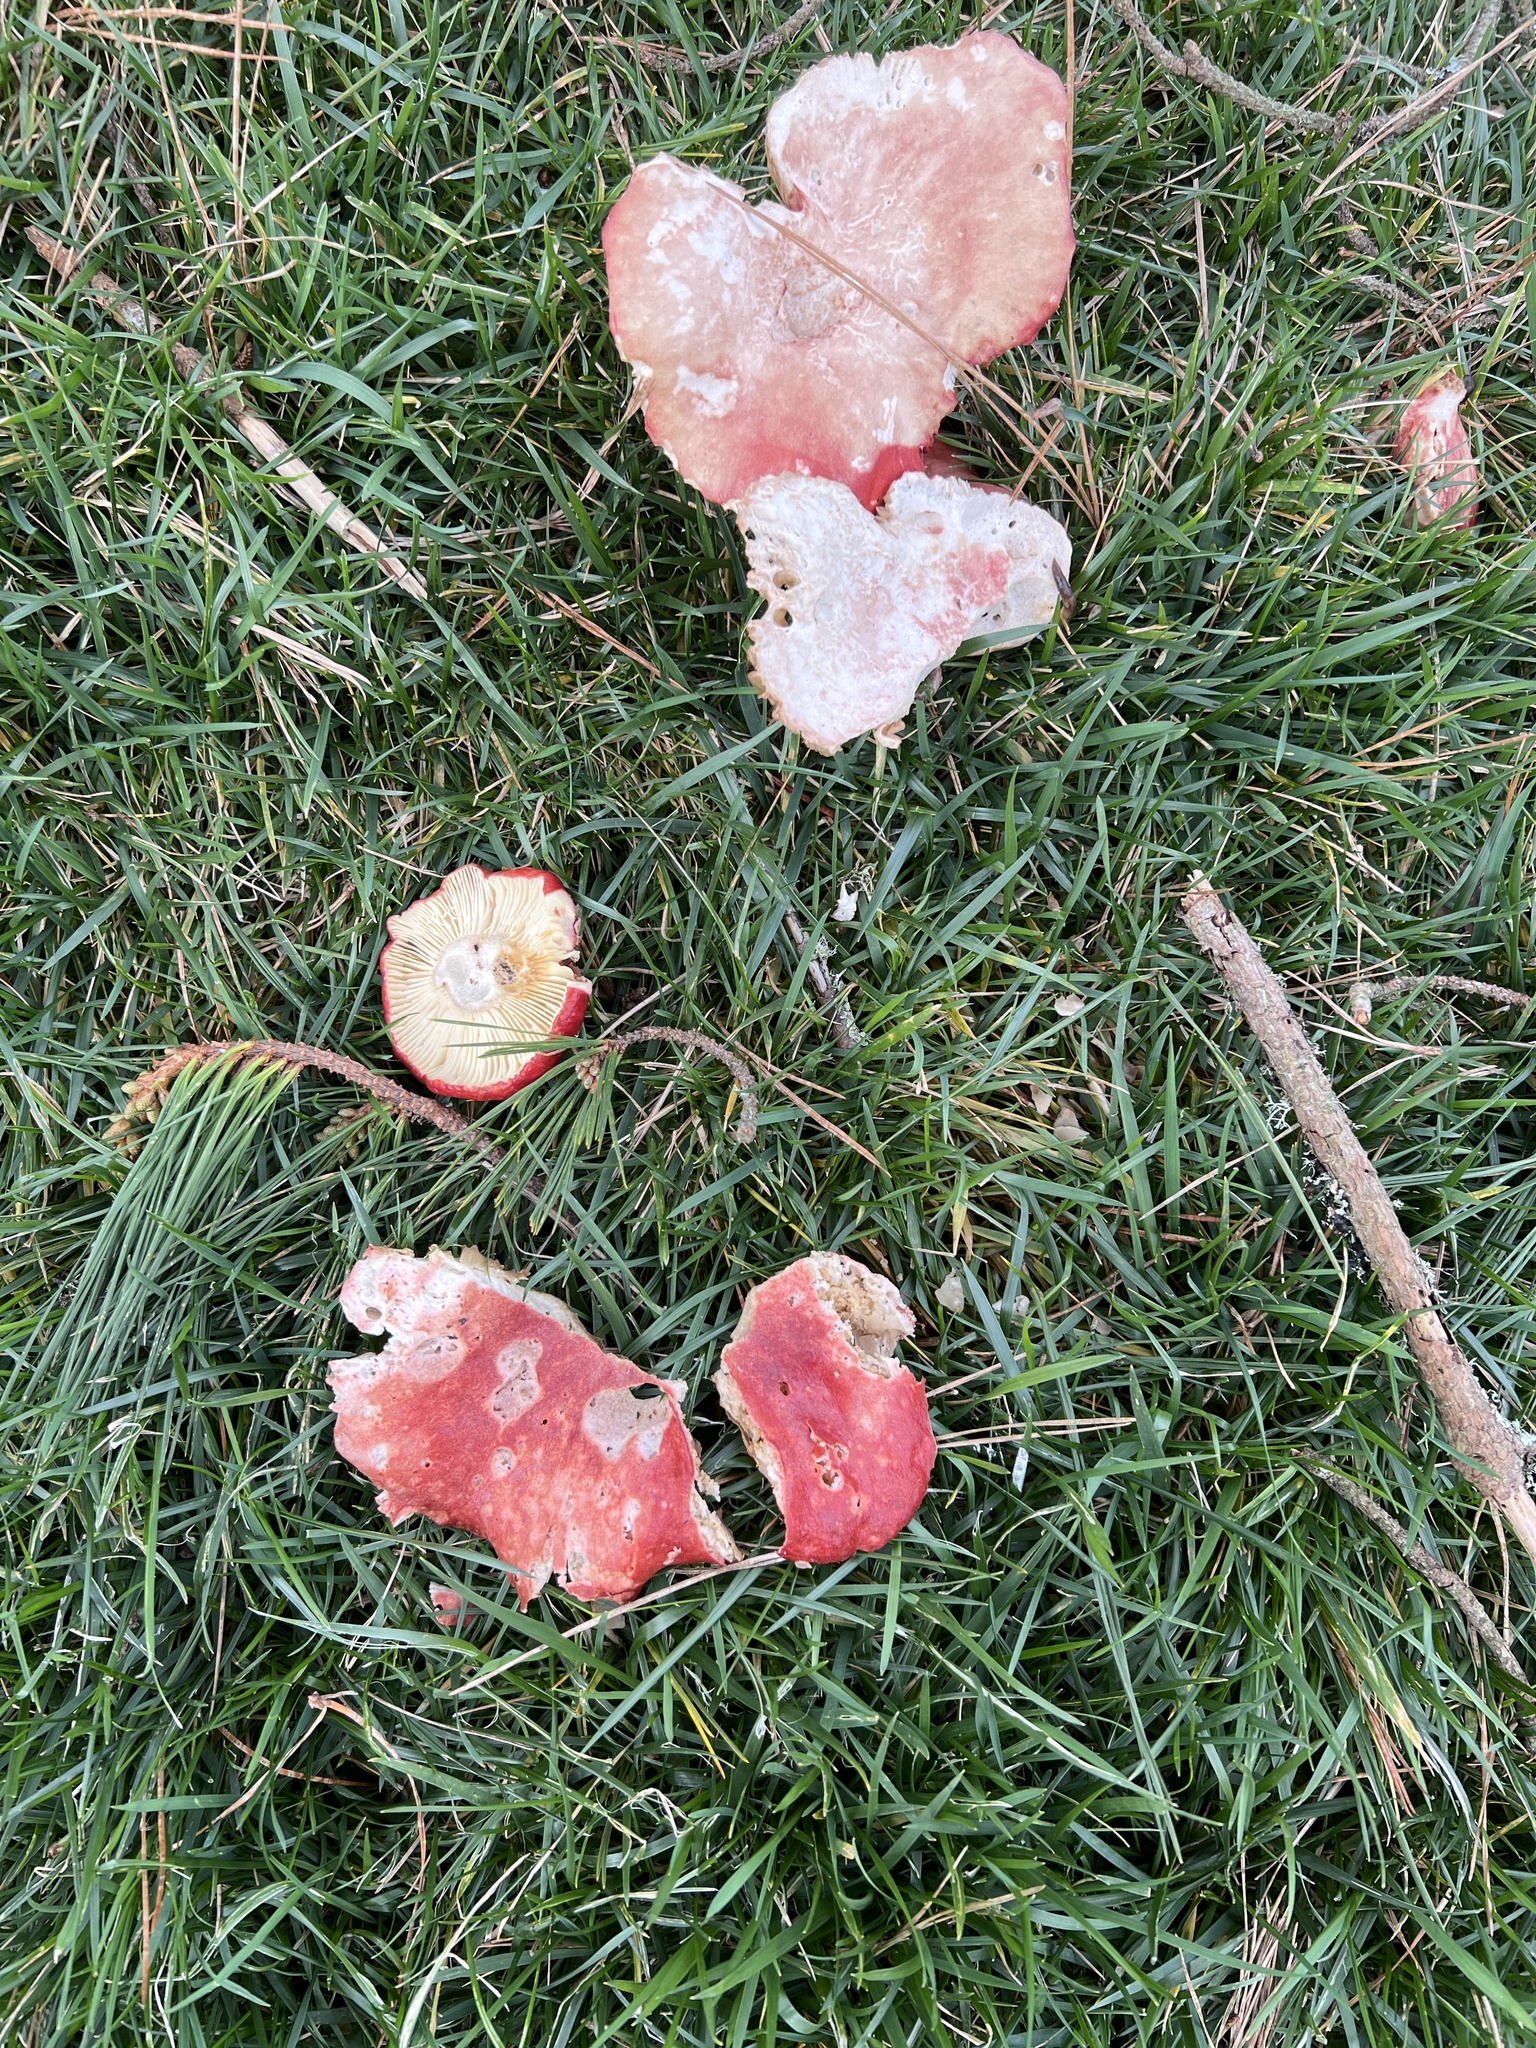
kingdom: Fungi
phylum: Basidiomycota
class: Agaricomycetes
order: Russulales
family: Russulaceae
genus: Russula
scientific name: Russula rhodocephala
